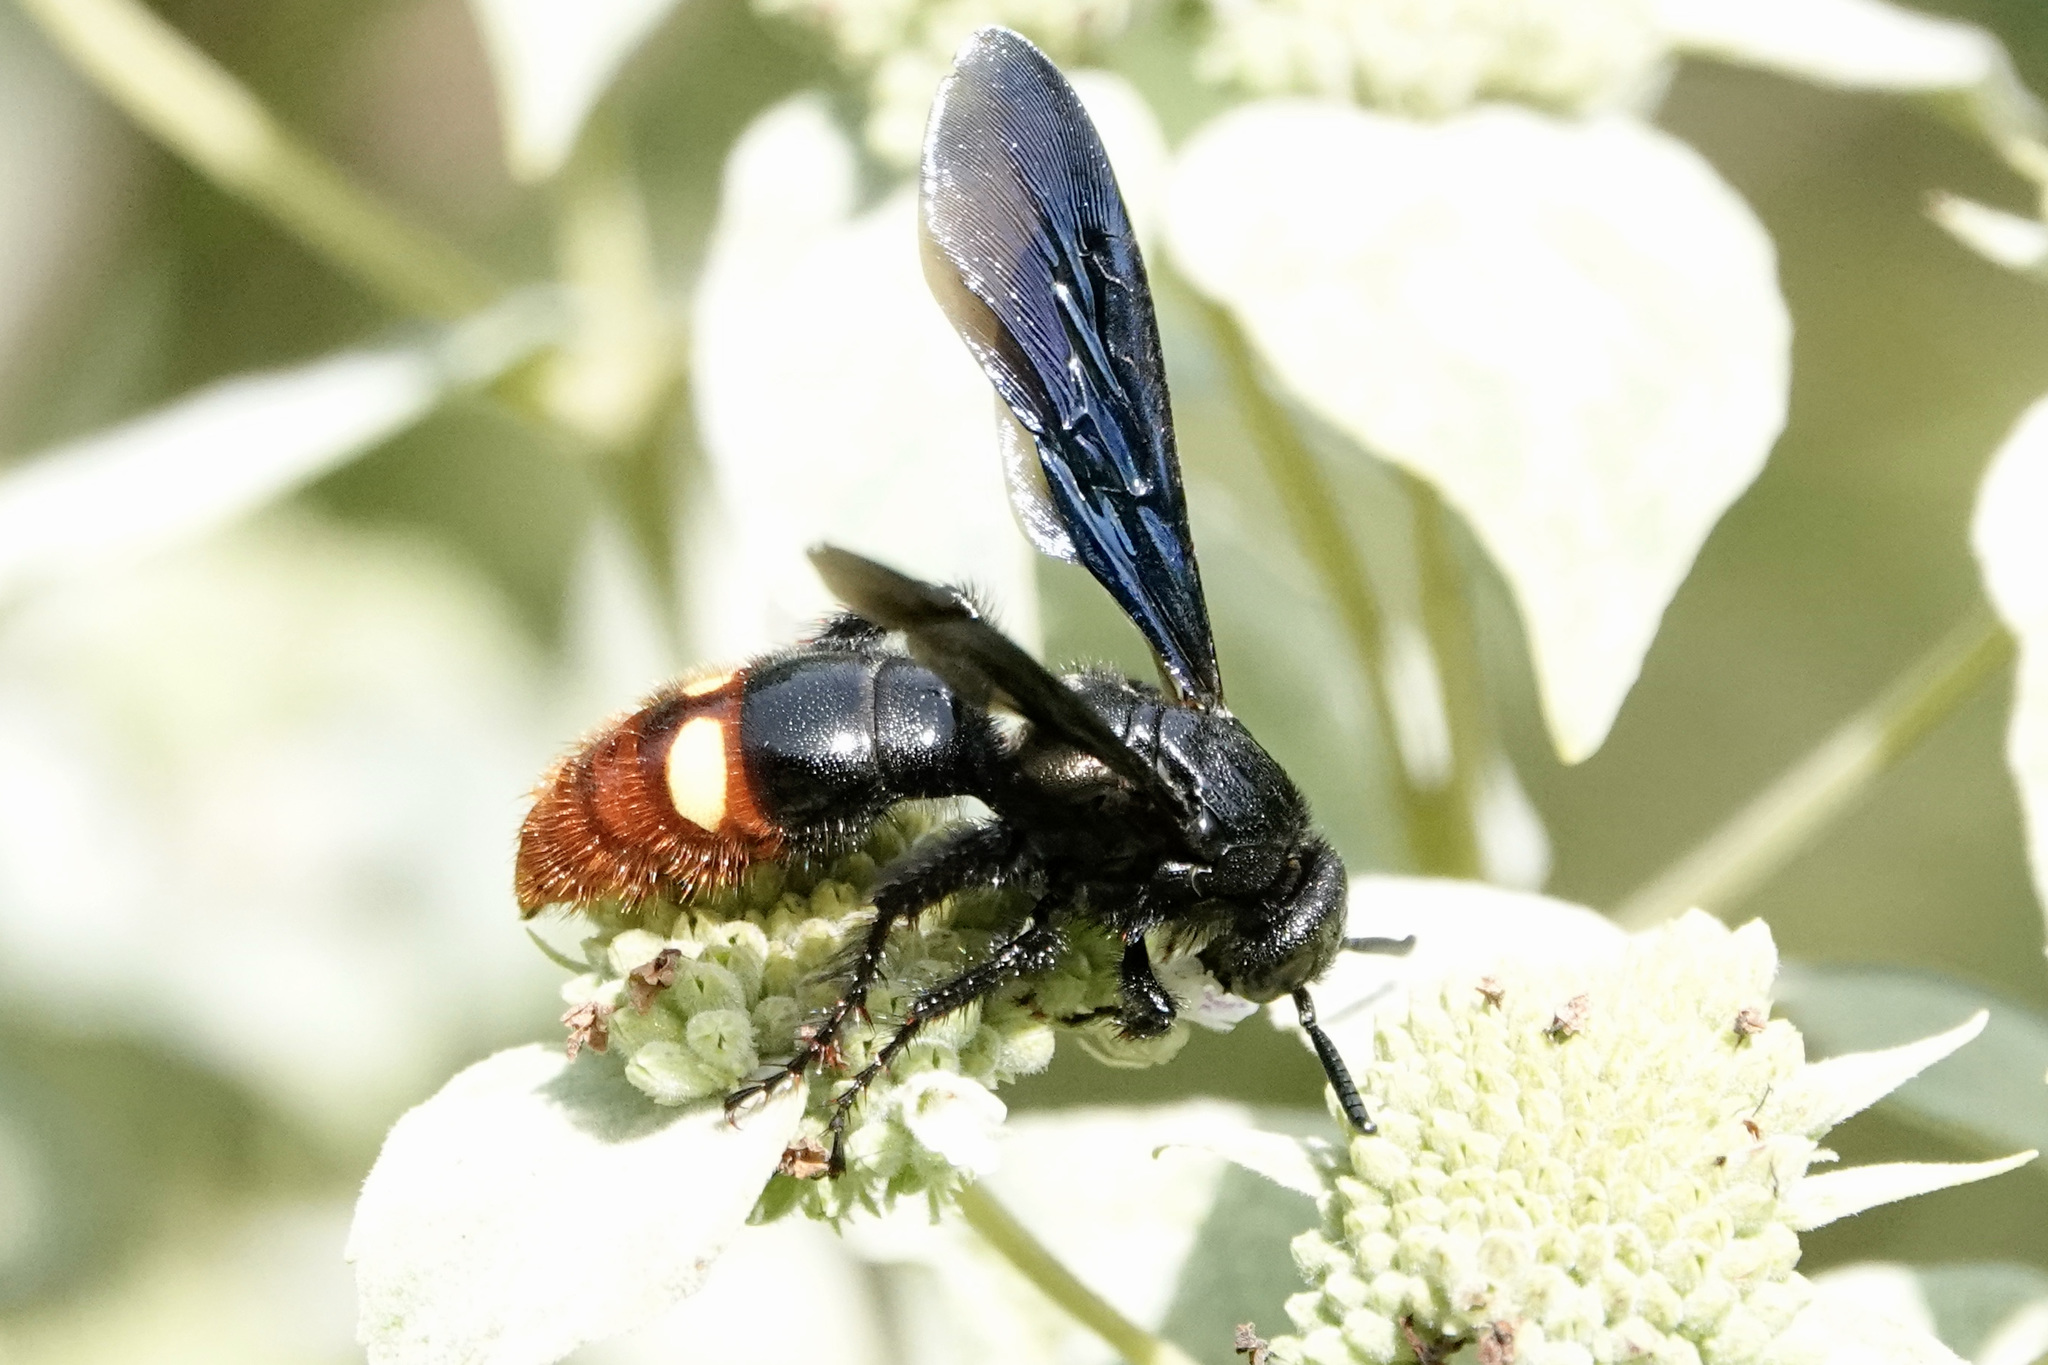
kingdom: Animalia
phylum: Arthropoda
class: Insecta
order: Hymenoptera
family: Scoliidae
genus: Scolia
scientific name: Scolia dubia
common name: Blue-winged scoliid wasp
